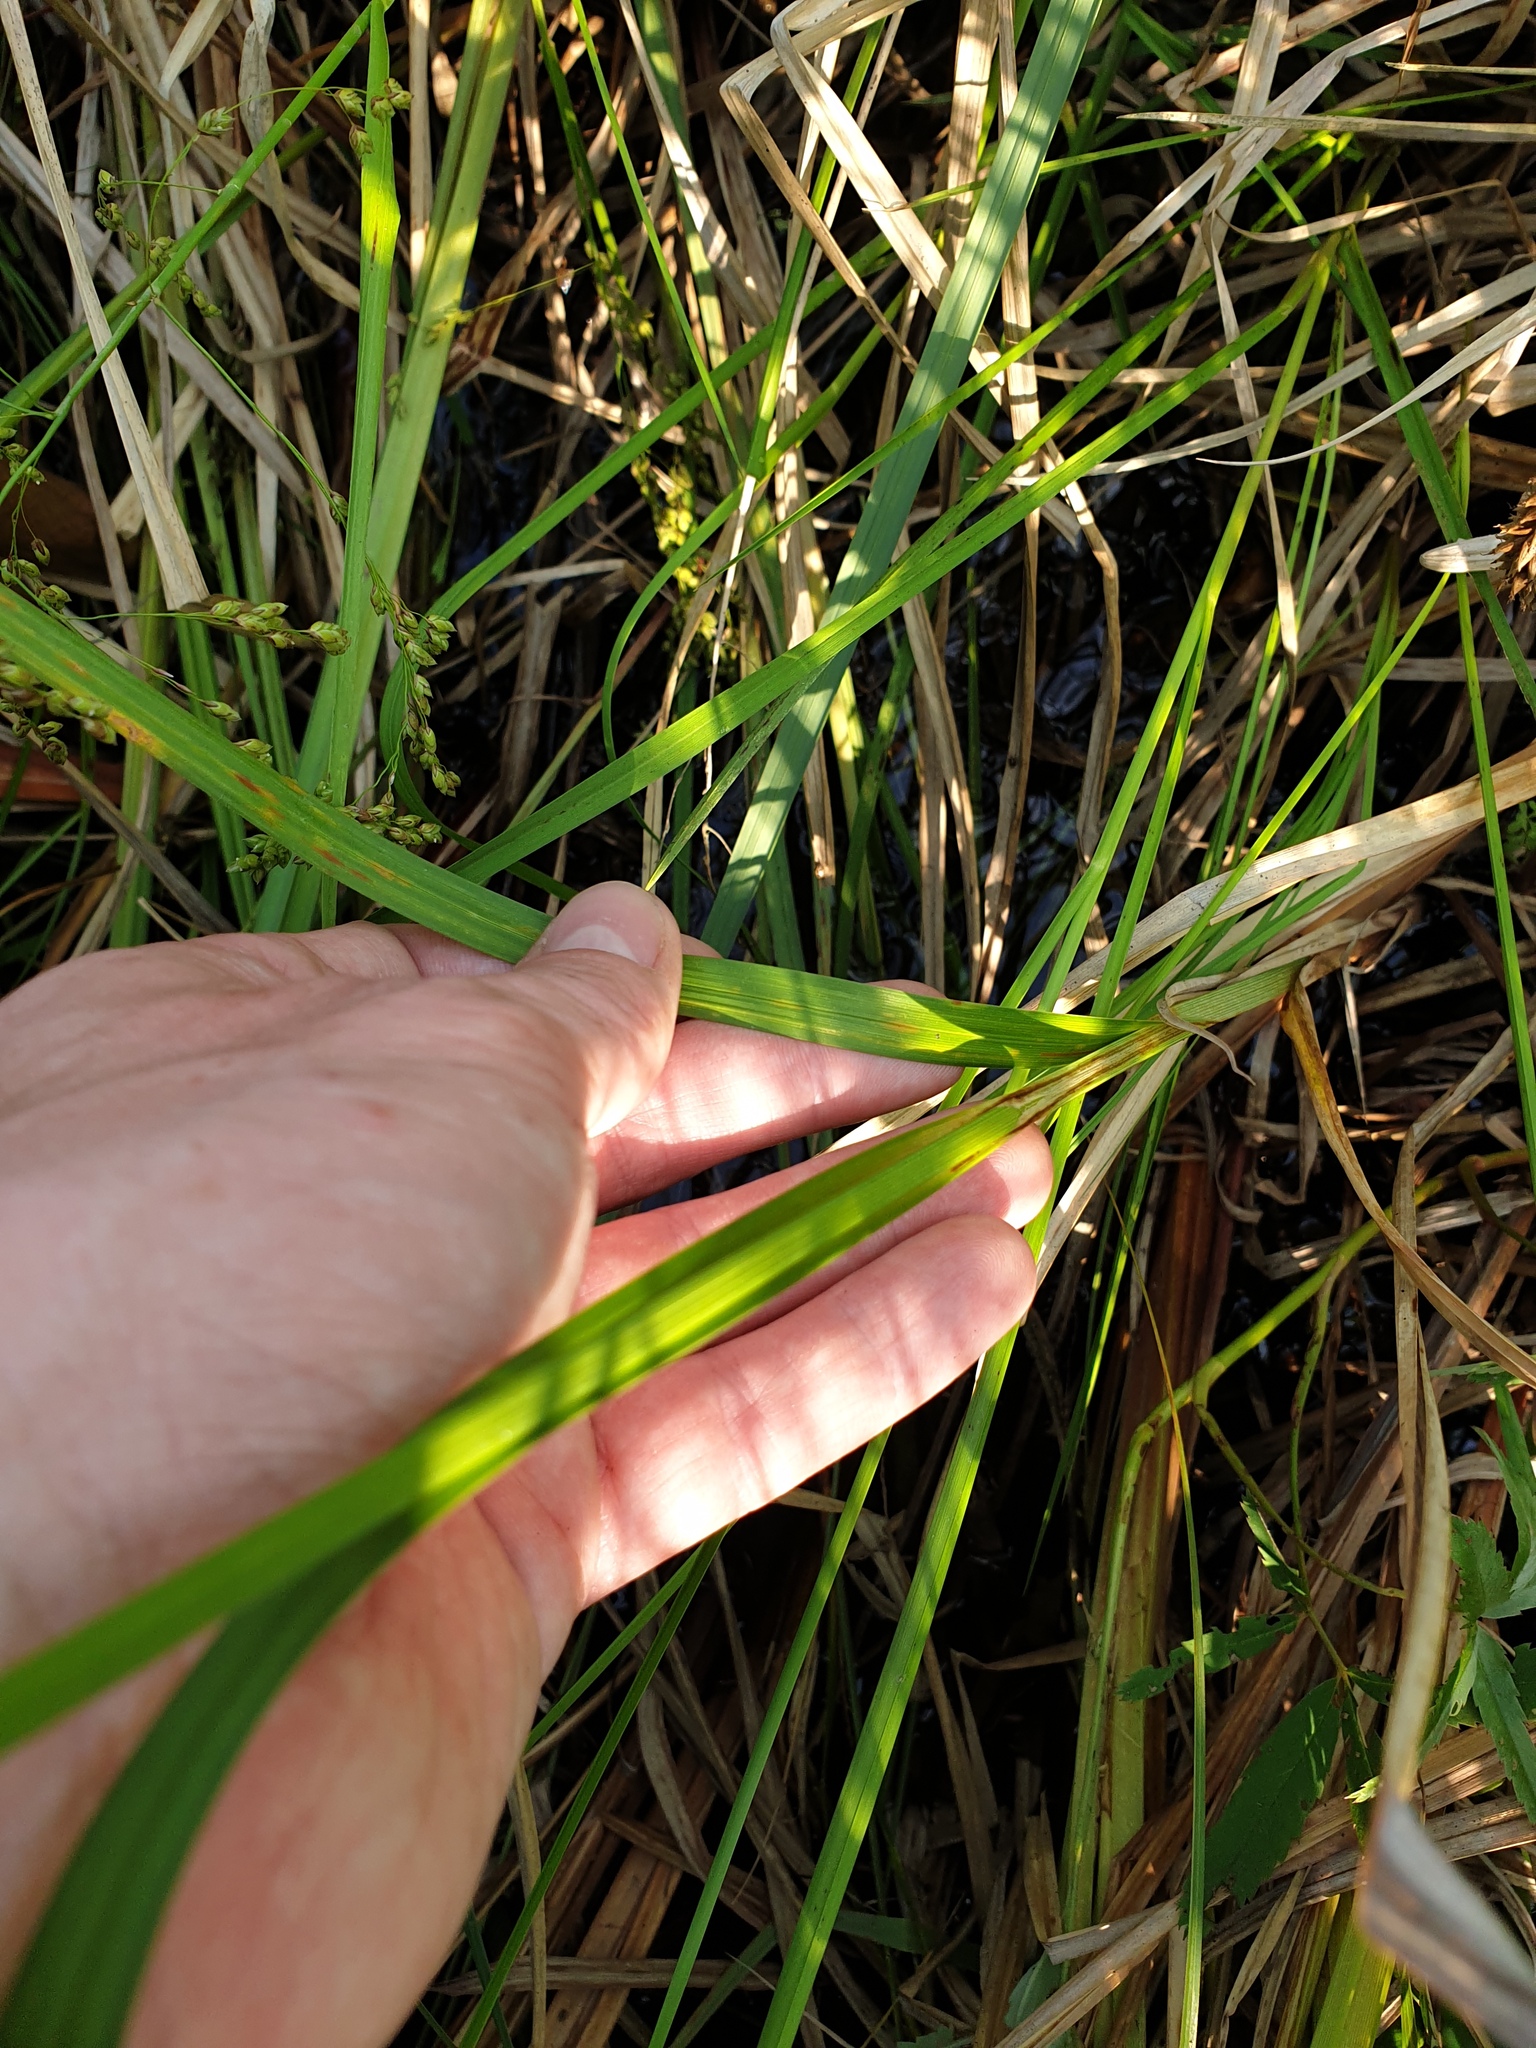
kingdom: Plantae
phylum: Tracheophyta
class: Liliopsida
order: Poales
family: Cyperaceae
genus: Carex
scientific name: Carex lacustris
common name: Common lake sedge
